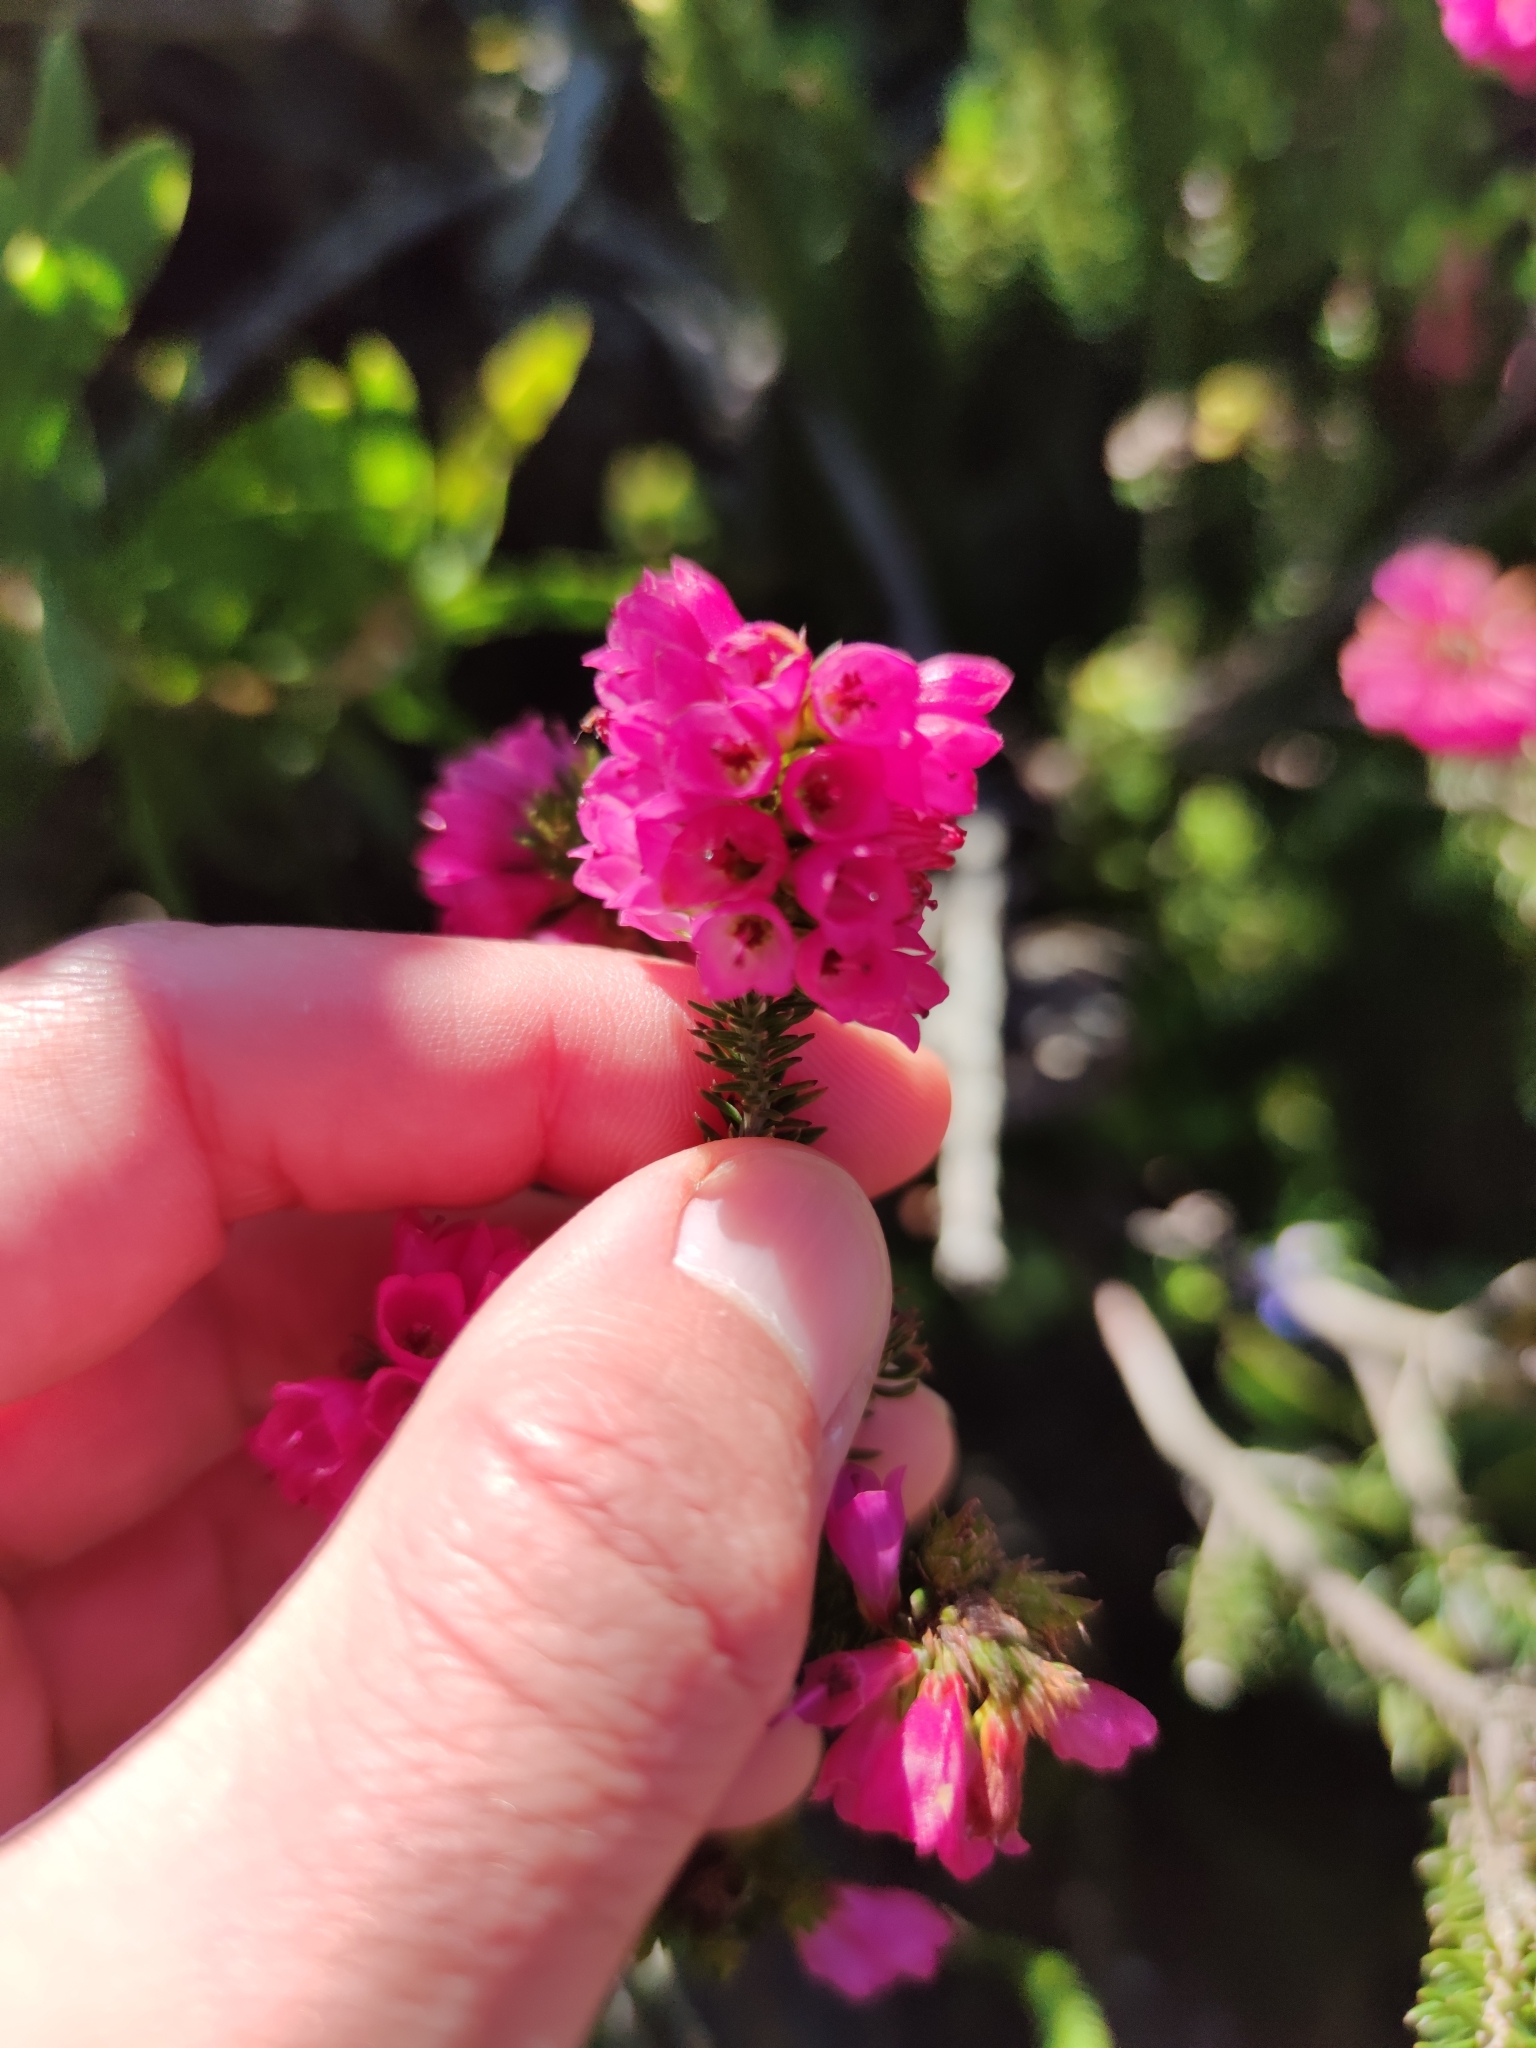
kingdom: Plantae
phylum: Tracheophyta
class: Magnoliopsida
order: Ericales
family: Ericaceae
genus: Erica
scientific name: Erica abietina
